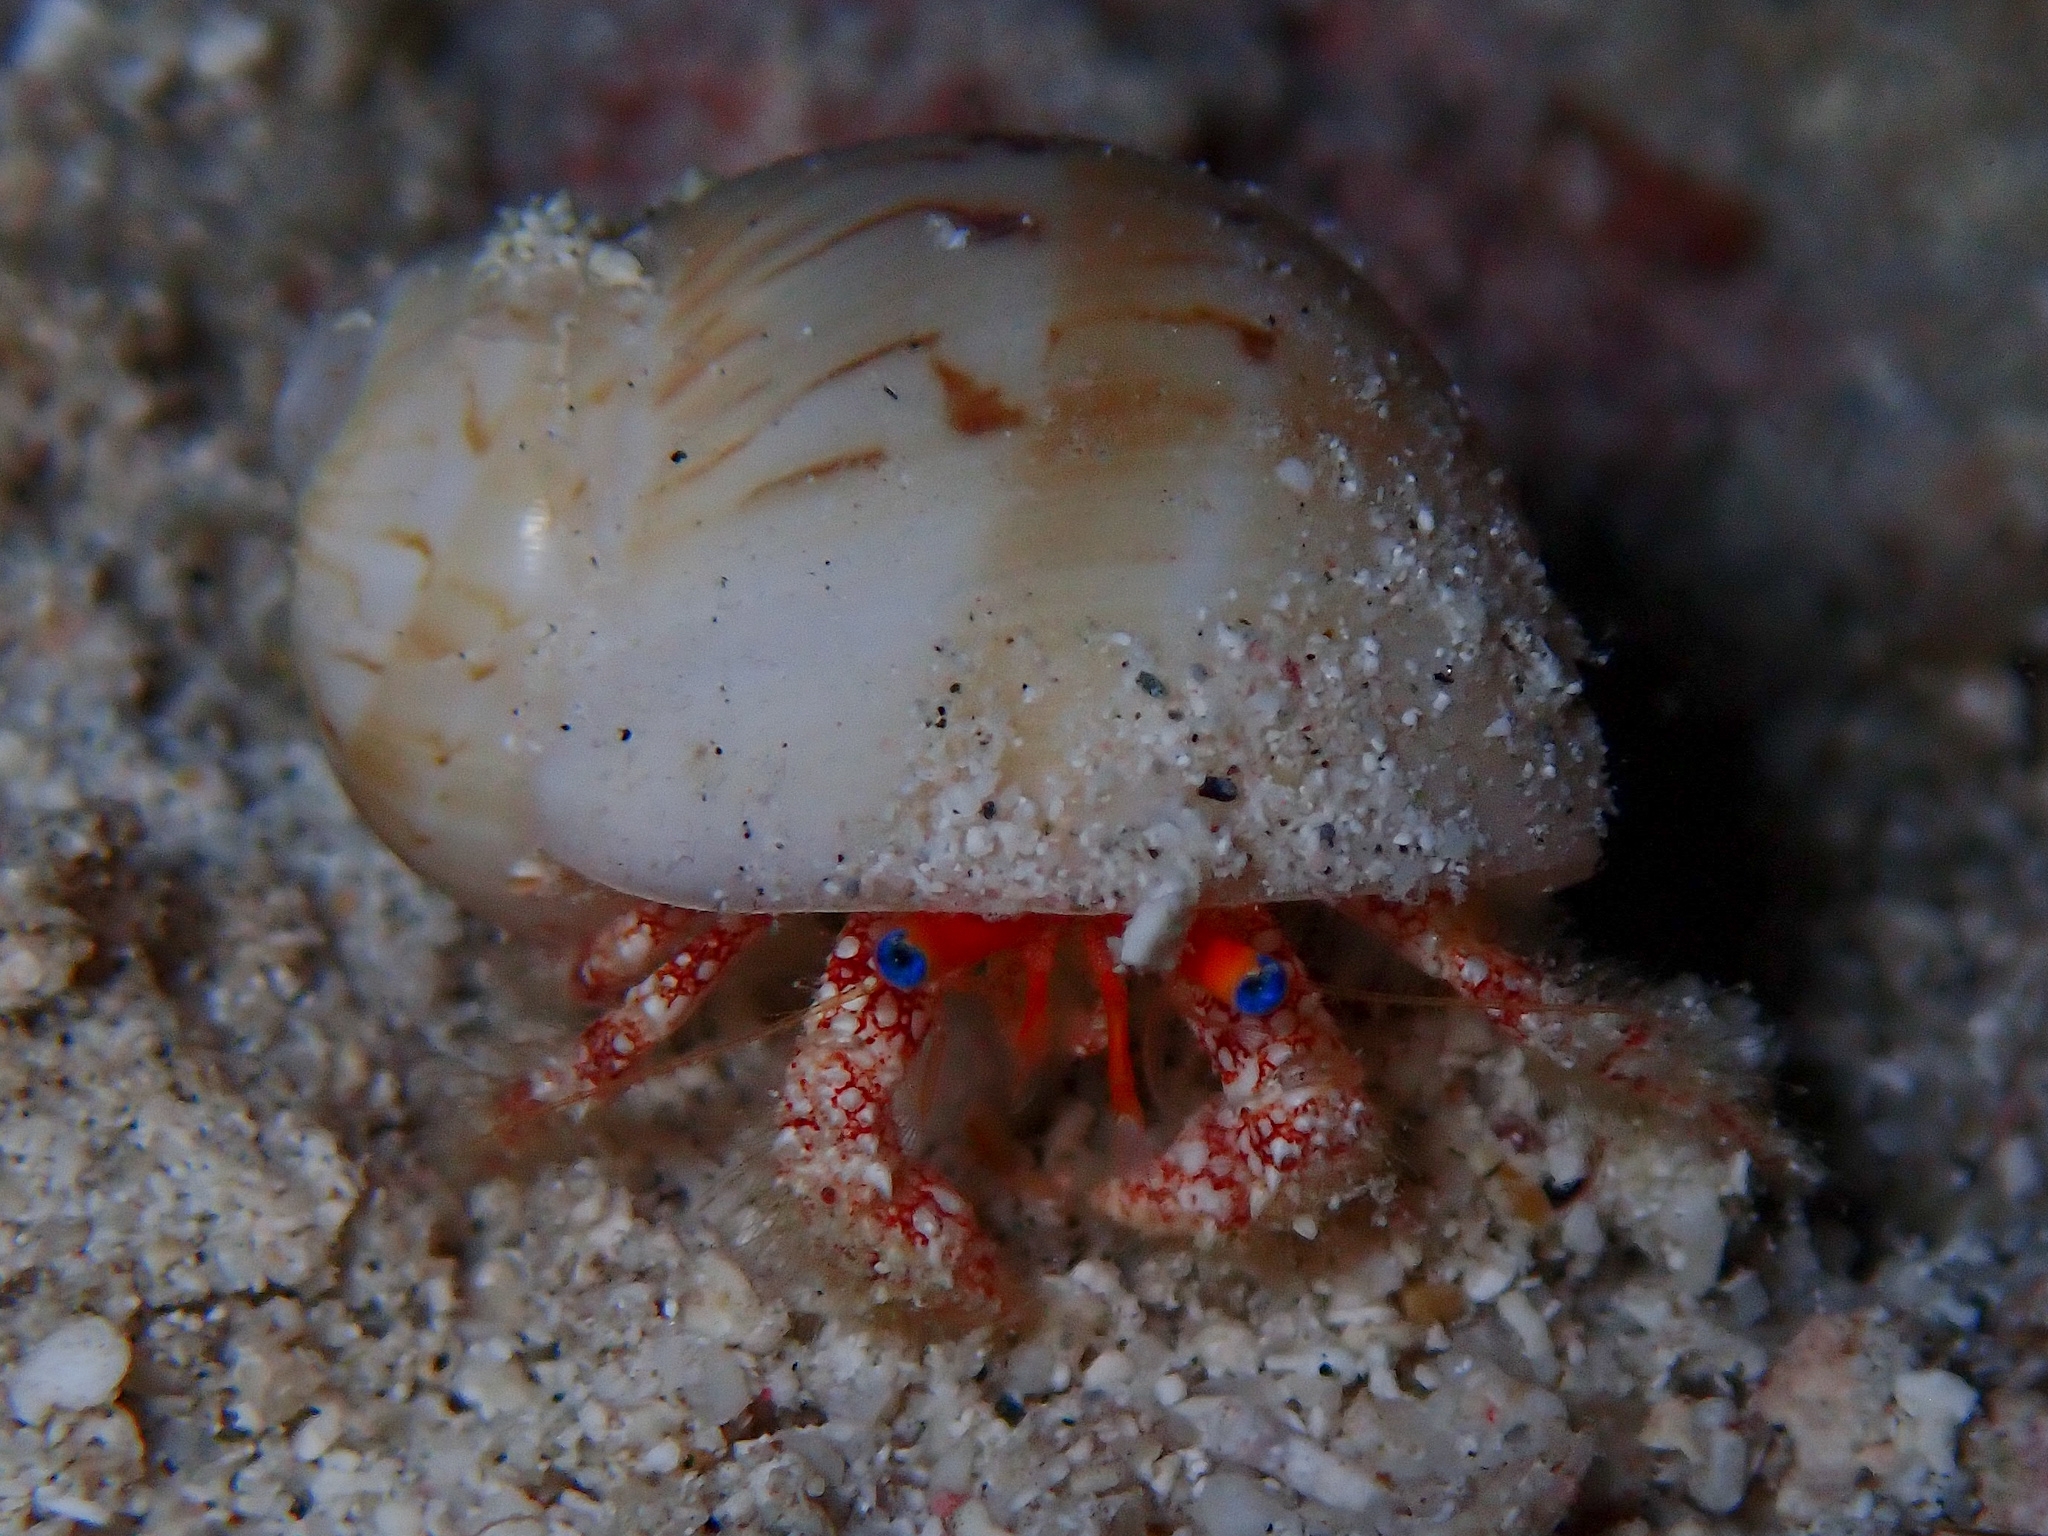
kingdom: Animalia
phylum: Arthropoda
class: Malacostraca
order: Decapoda
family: Diogenidae
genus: Paguristes
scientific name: Paguristes sericeus
